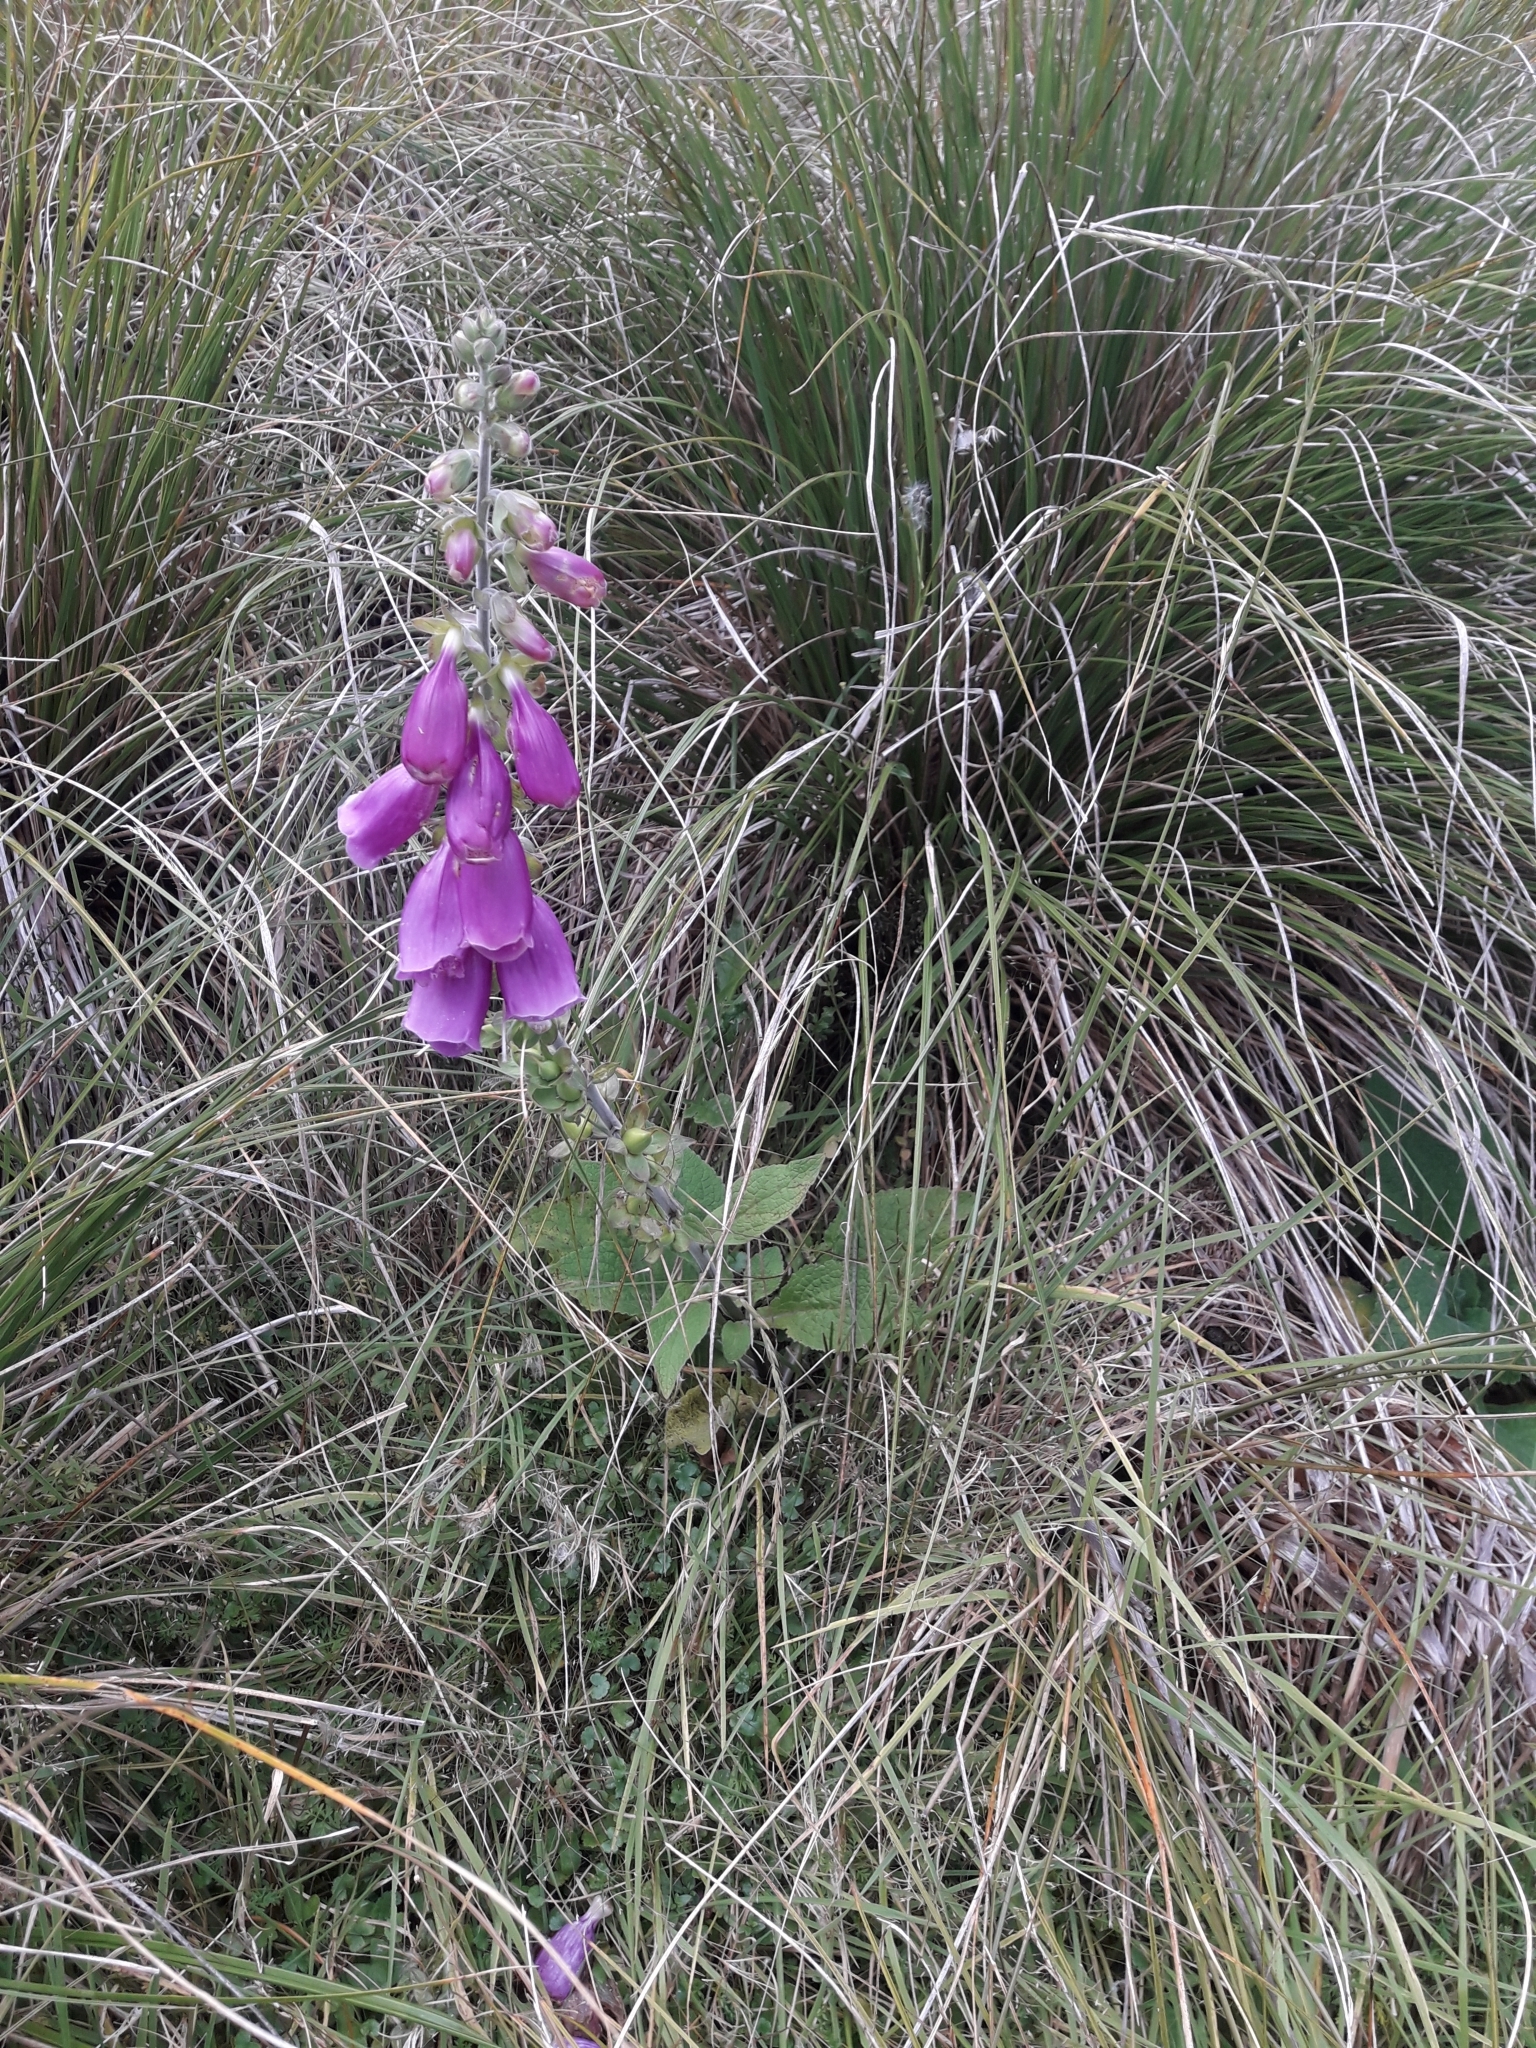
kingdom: Plantae
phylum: Tracheophyta
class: Magnoliopsida
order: Lamiales
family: Plantaginaceae
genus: Digitalis
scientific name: Digitalis purpurea
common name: Foxglove
